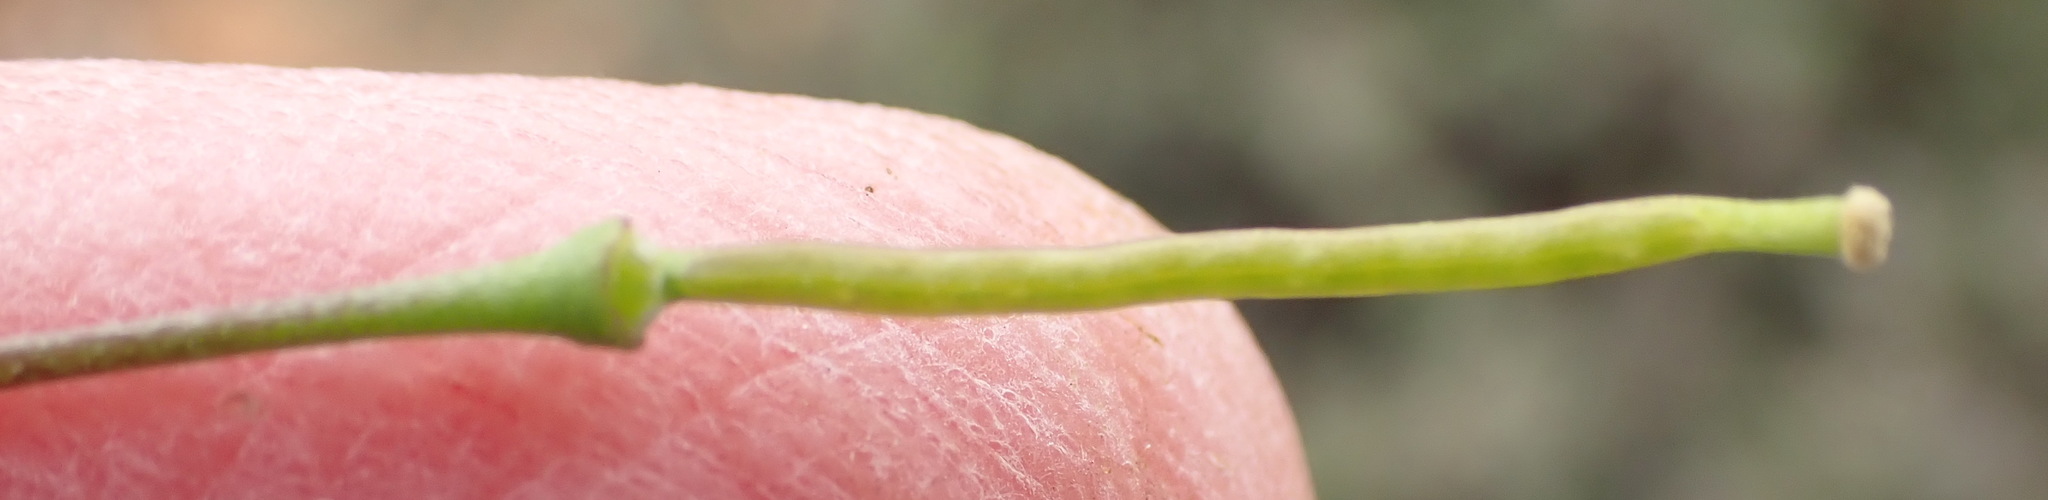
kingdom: Plantae
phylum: Tracheophyta
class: Magnoliopsida
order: Brassicales
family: Brassicaceae
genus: Heliophila
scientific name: Heliophila suavissima
